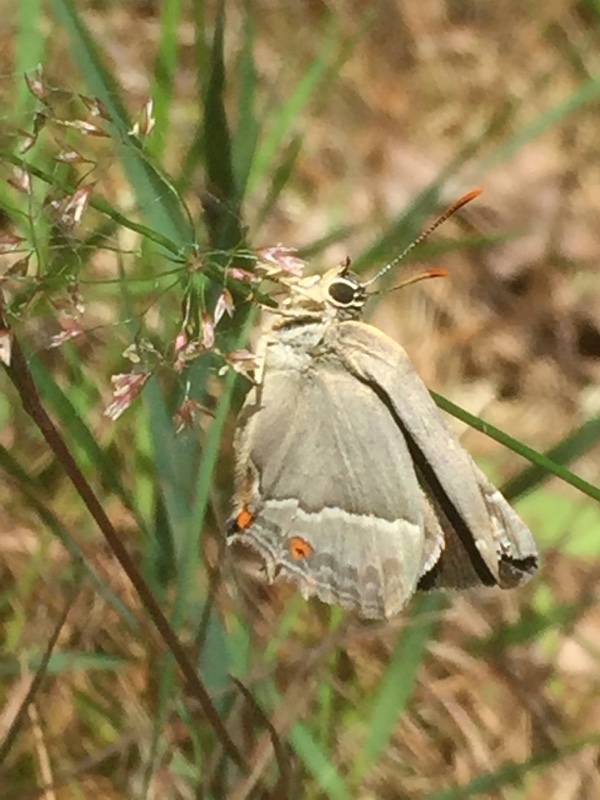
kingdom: Animalia
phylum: Arthropoda
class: Insecta
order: Lepidoptera
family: Lycaenidae
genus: Quercusia
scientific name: Quercusia quercus
